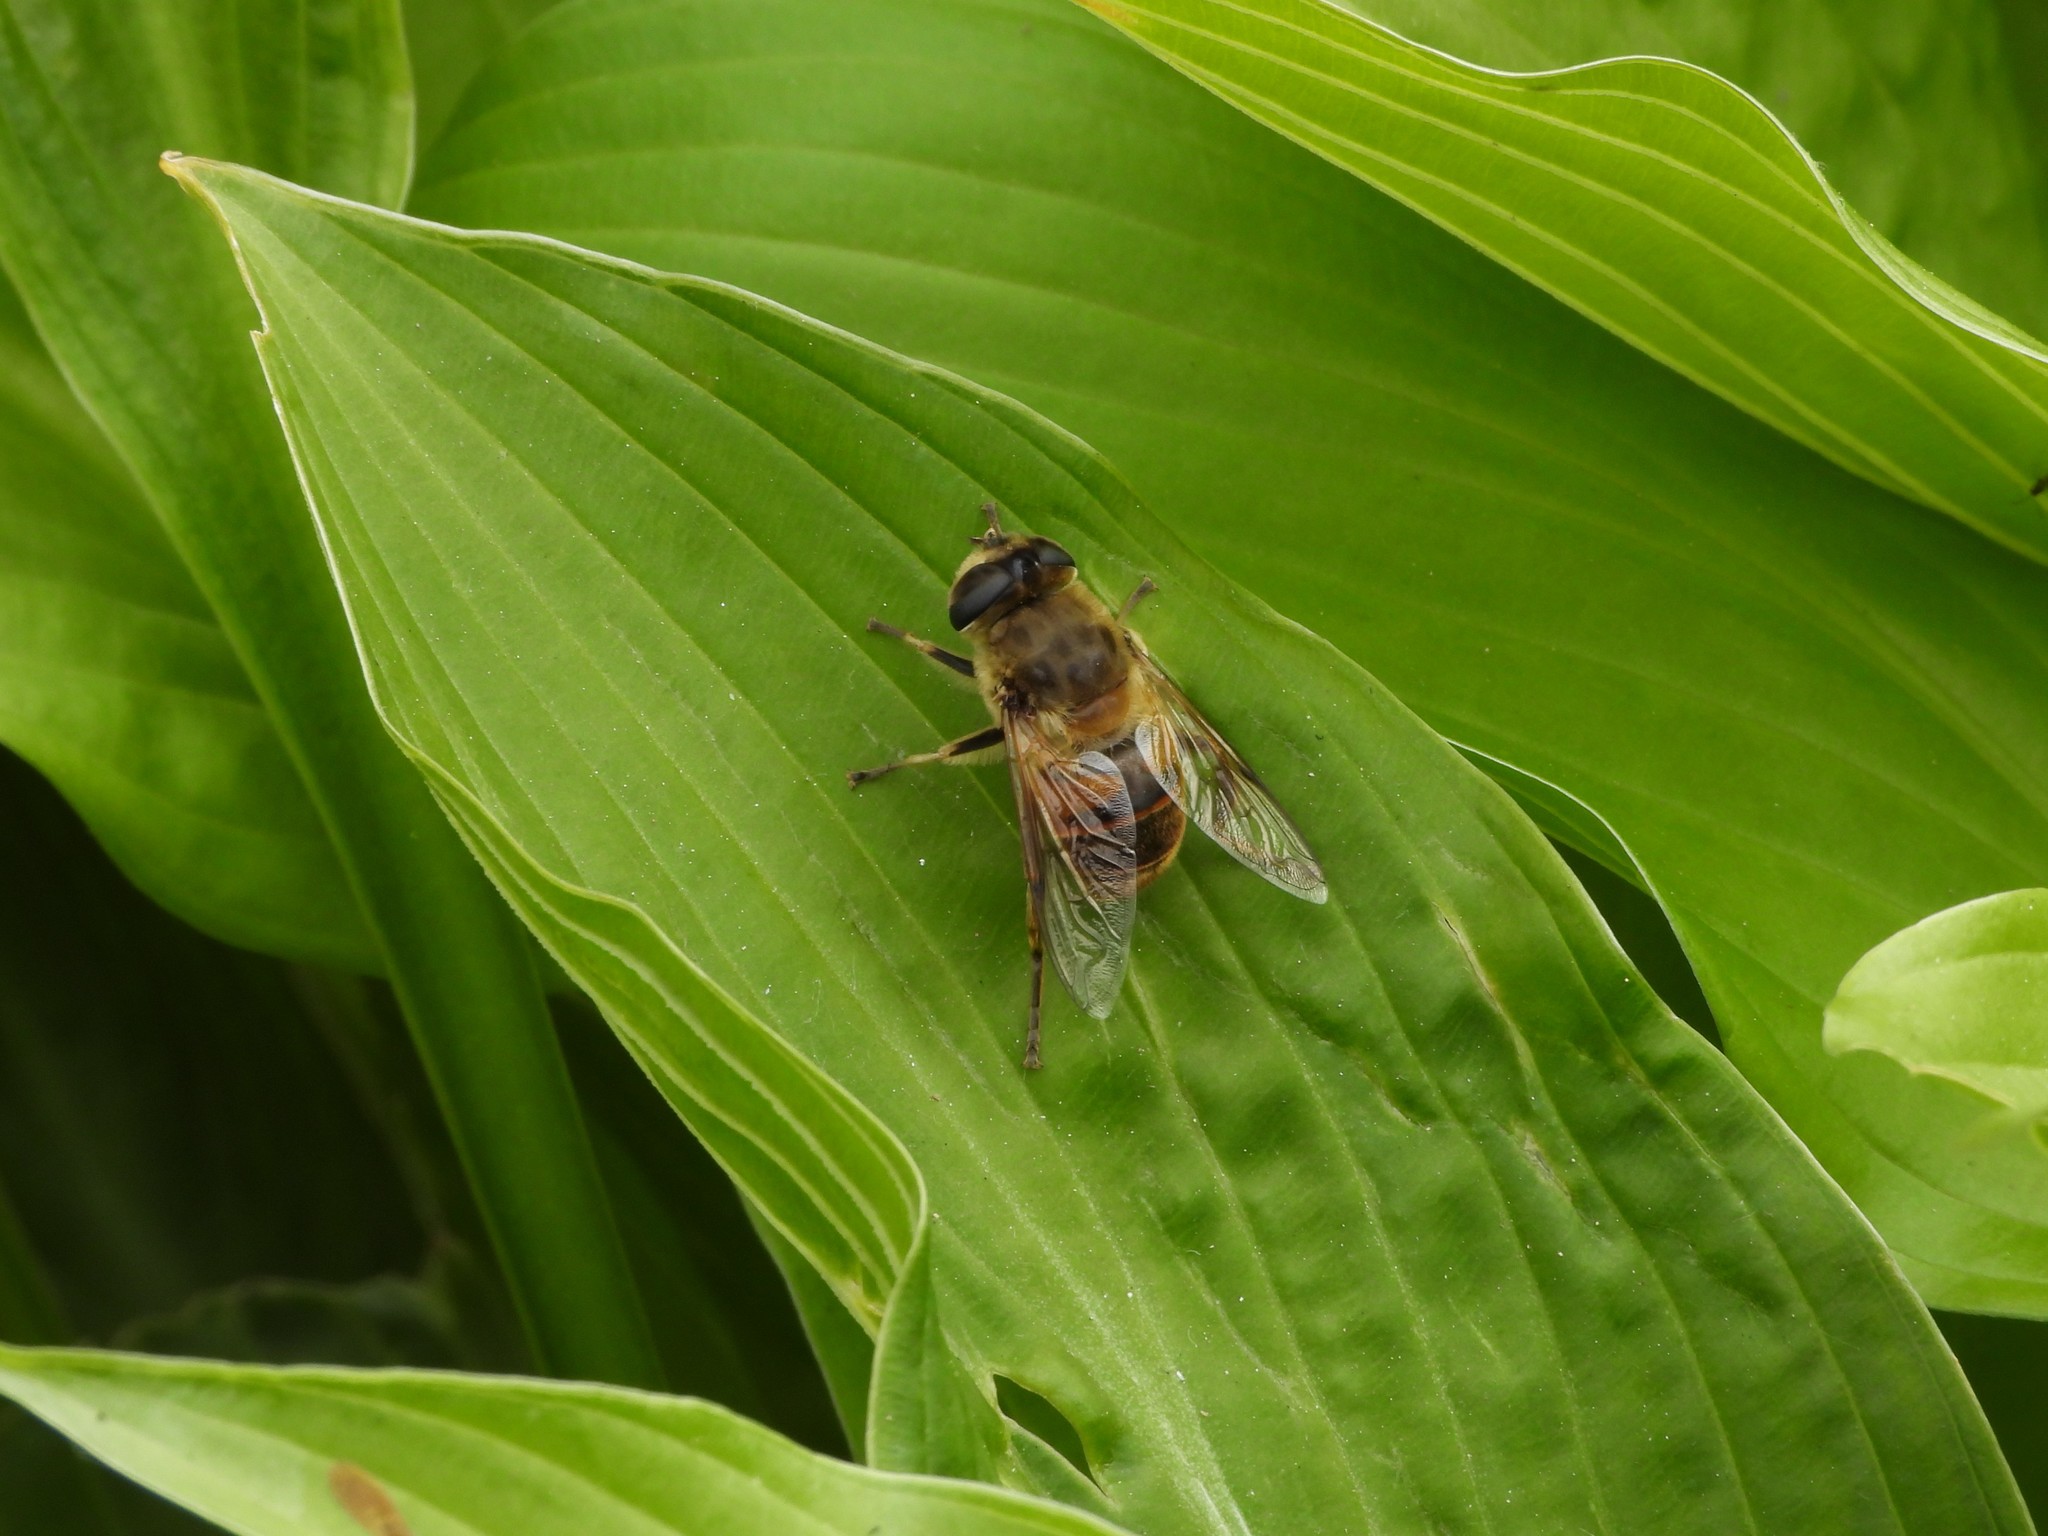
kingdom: Animalia
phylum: Arthropoda
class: Insecta
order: Diptera
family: Syrphidae
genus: Eristalis
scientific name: Eristalis tenax
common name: Drone fly
